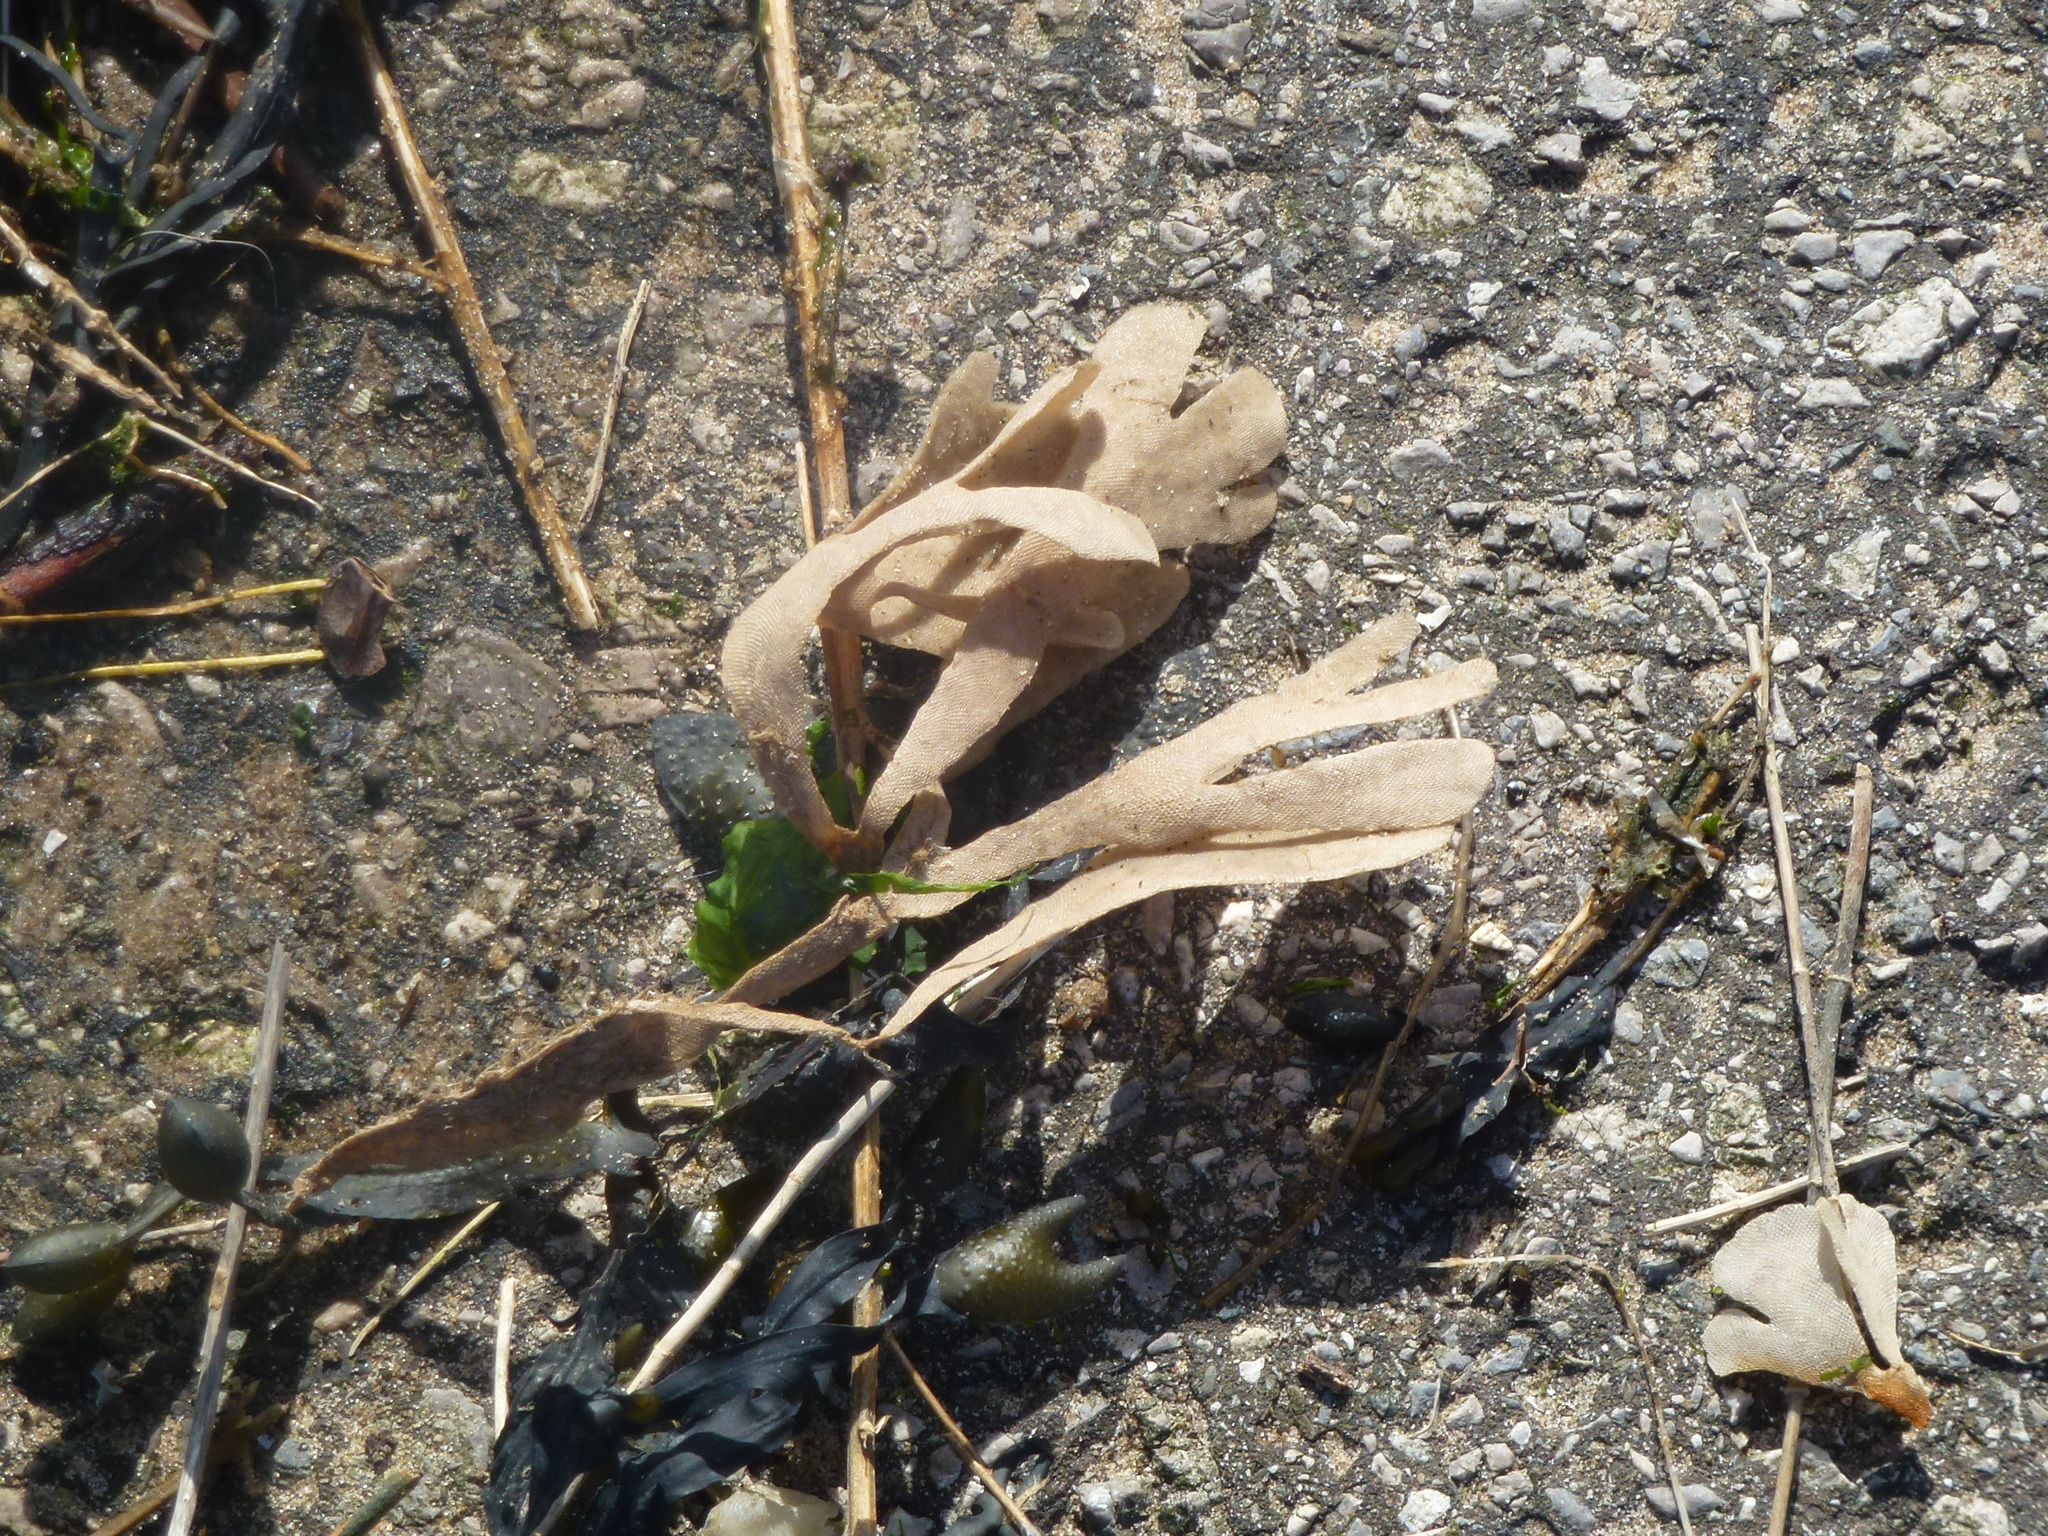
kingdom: Animalia
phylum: Bryozoa
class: Gymnolaemata
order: Cheilostomatida
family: Flustridae
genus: Flustra
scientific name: Flustra foliacea
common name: Hornwrack
